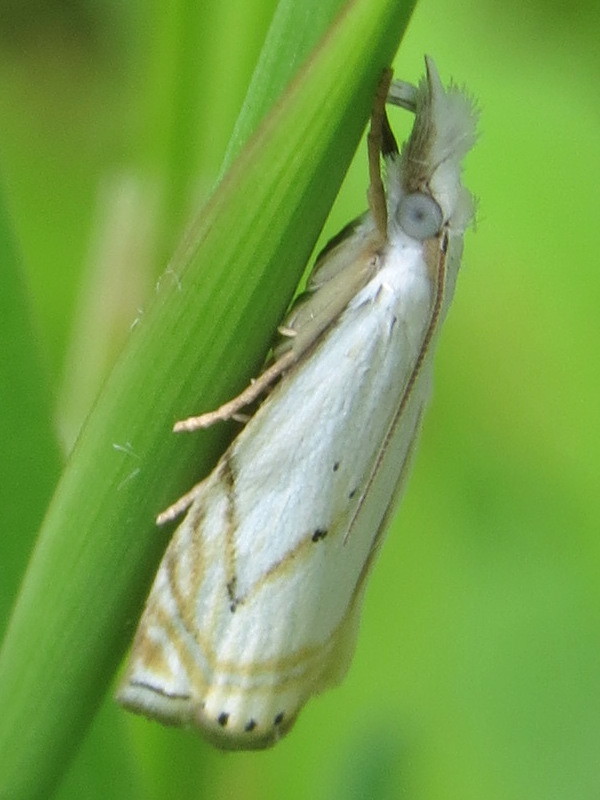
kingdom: Animalia
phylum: Arthropoda
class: Insecta
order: Lepidoptera
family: Crambidae
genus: Crambus
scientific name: Crambus albellus
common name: Small white grass-veneer
